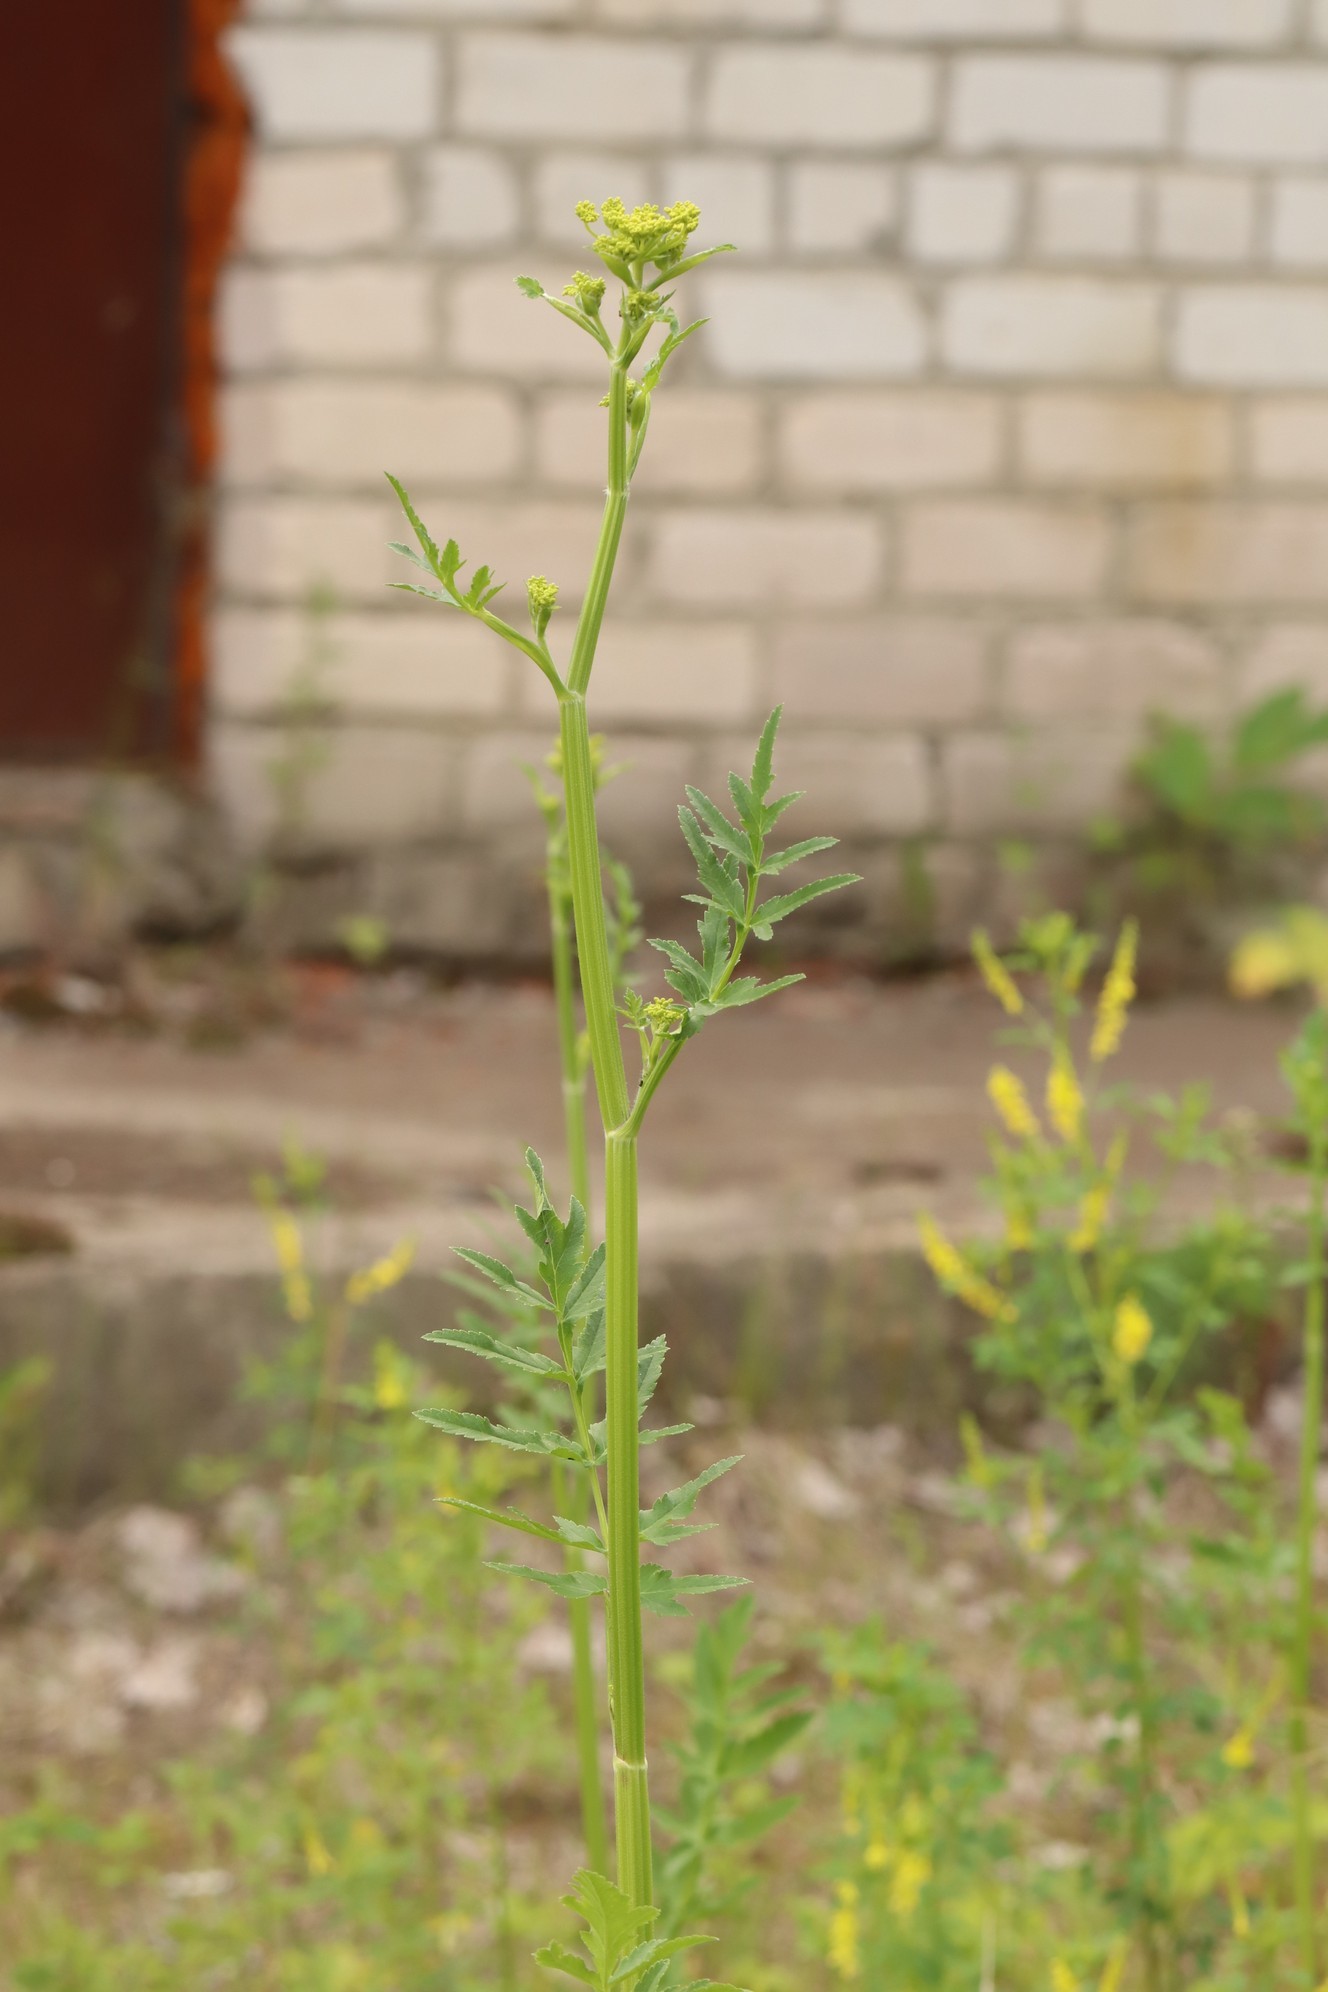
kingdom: Plantae
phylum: Tracheophyta
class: Magnoliopsida
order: Apiales
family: Apiaceae
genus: Pastinaca
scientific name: Pastinaca sativa
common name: Wild parsnip
